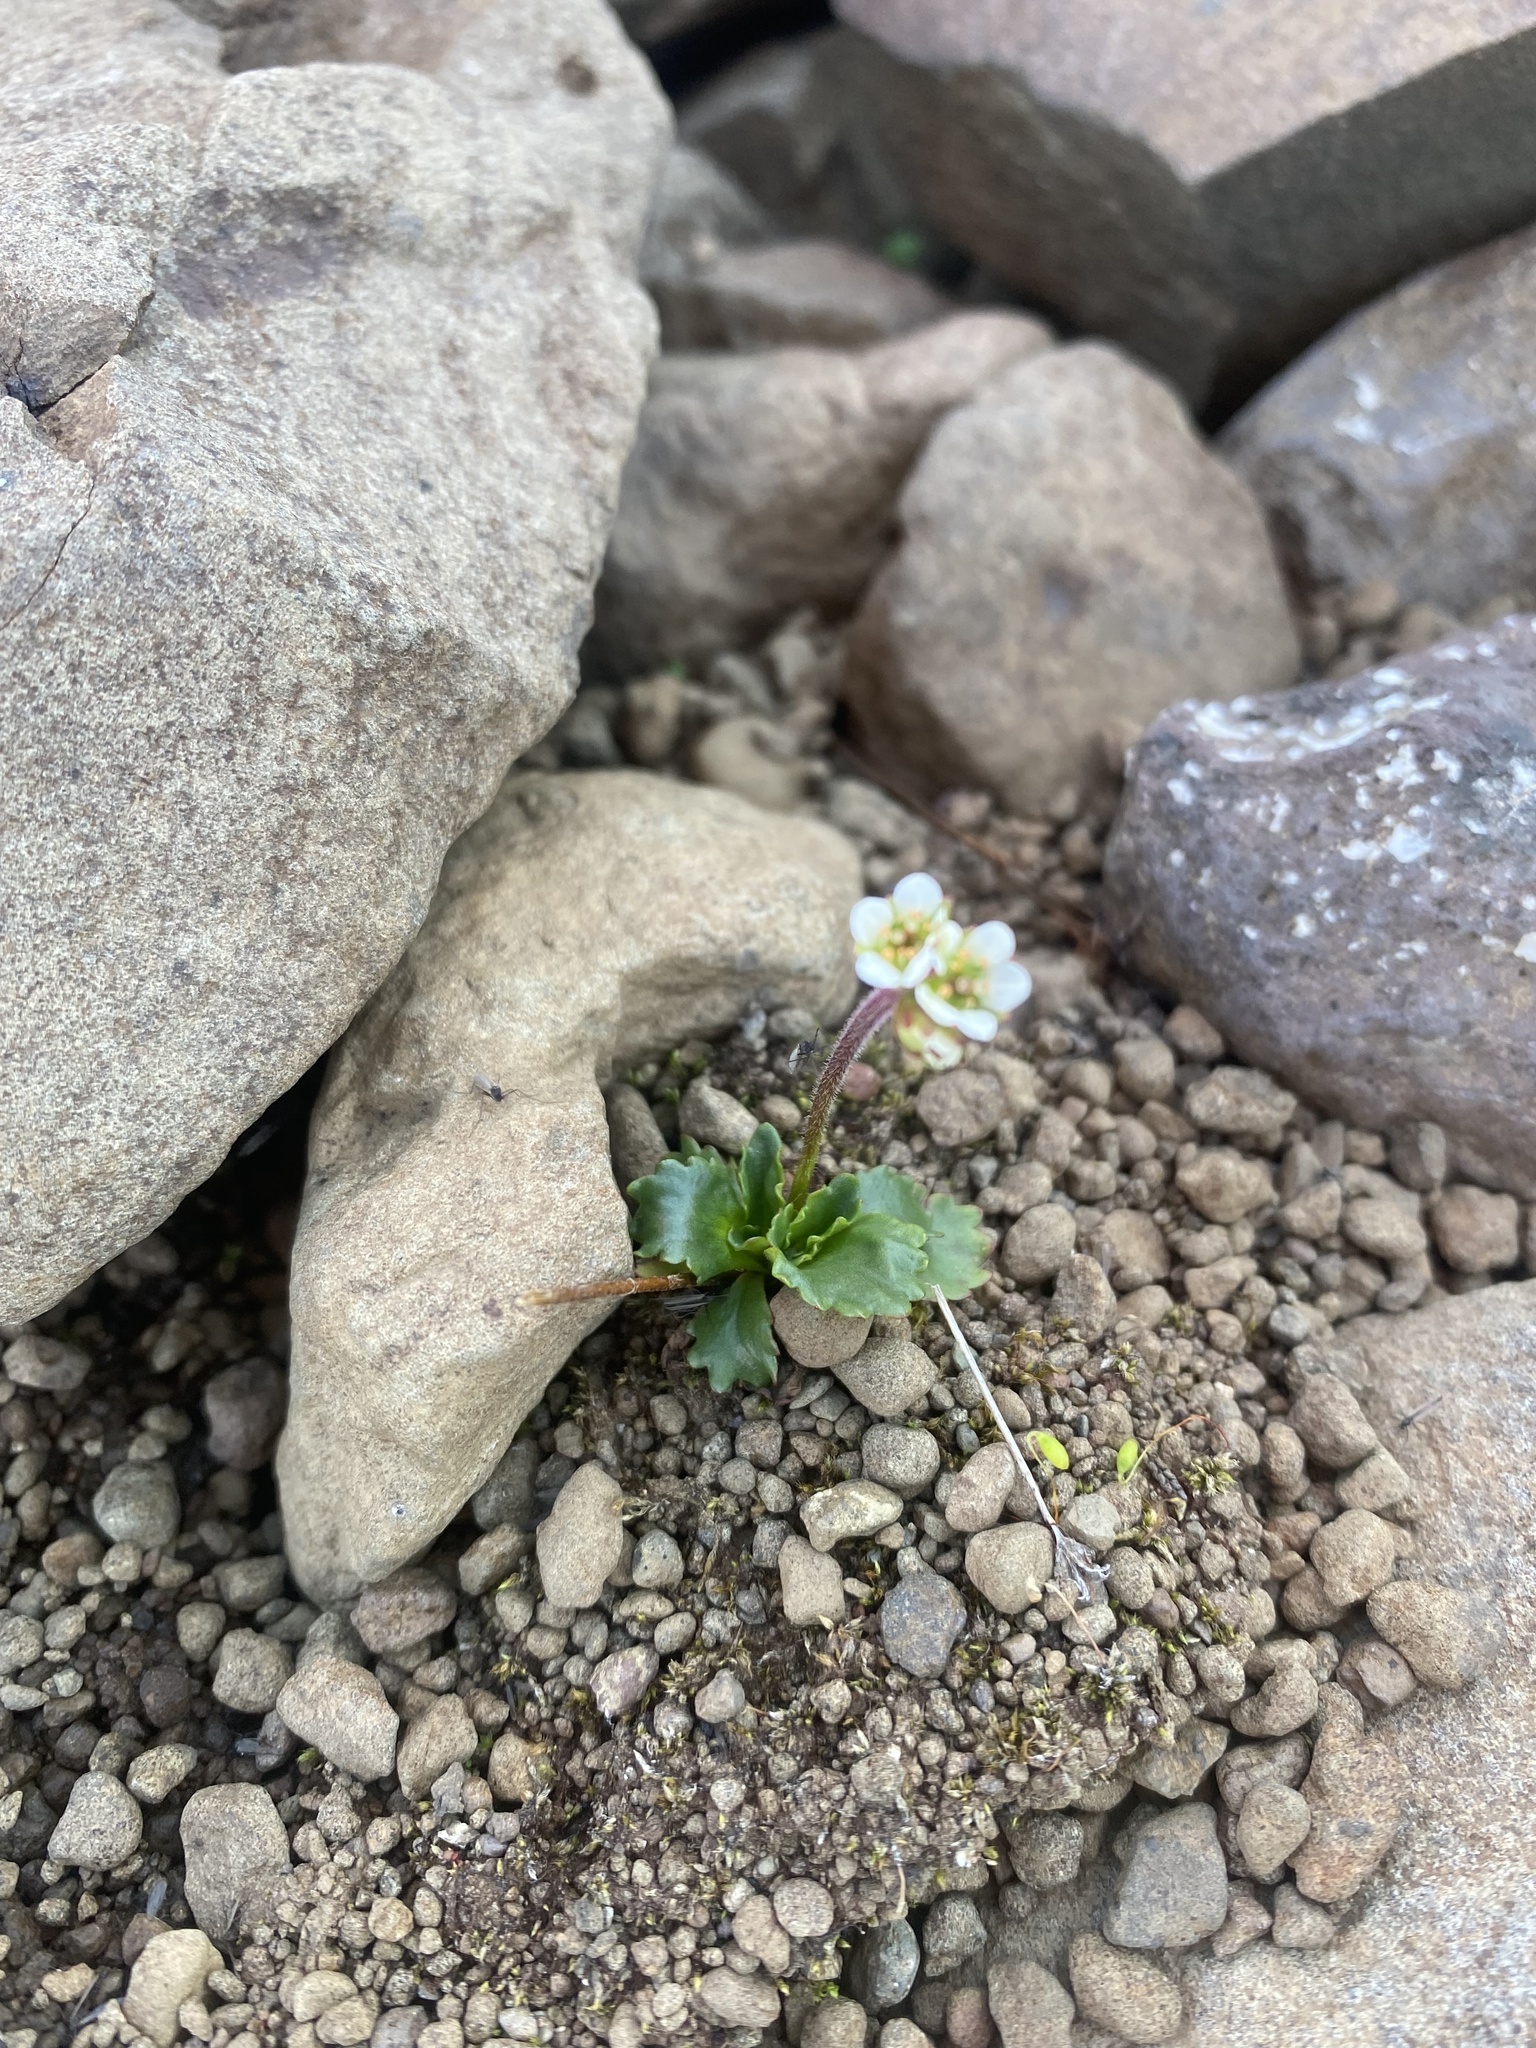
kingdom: Plantae
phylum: Tracheophyta
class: Magnoliopsida
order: Saxifragales
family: Saxifragaceae
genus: Micranthes
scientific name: Micranthes tenuis
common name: Ottertail pass saxifrage
